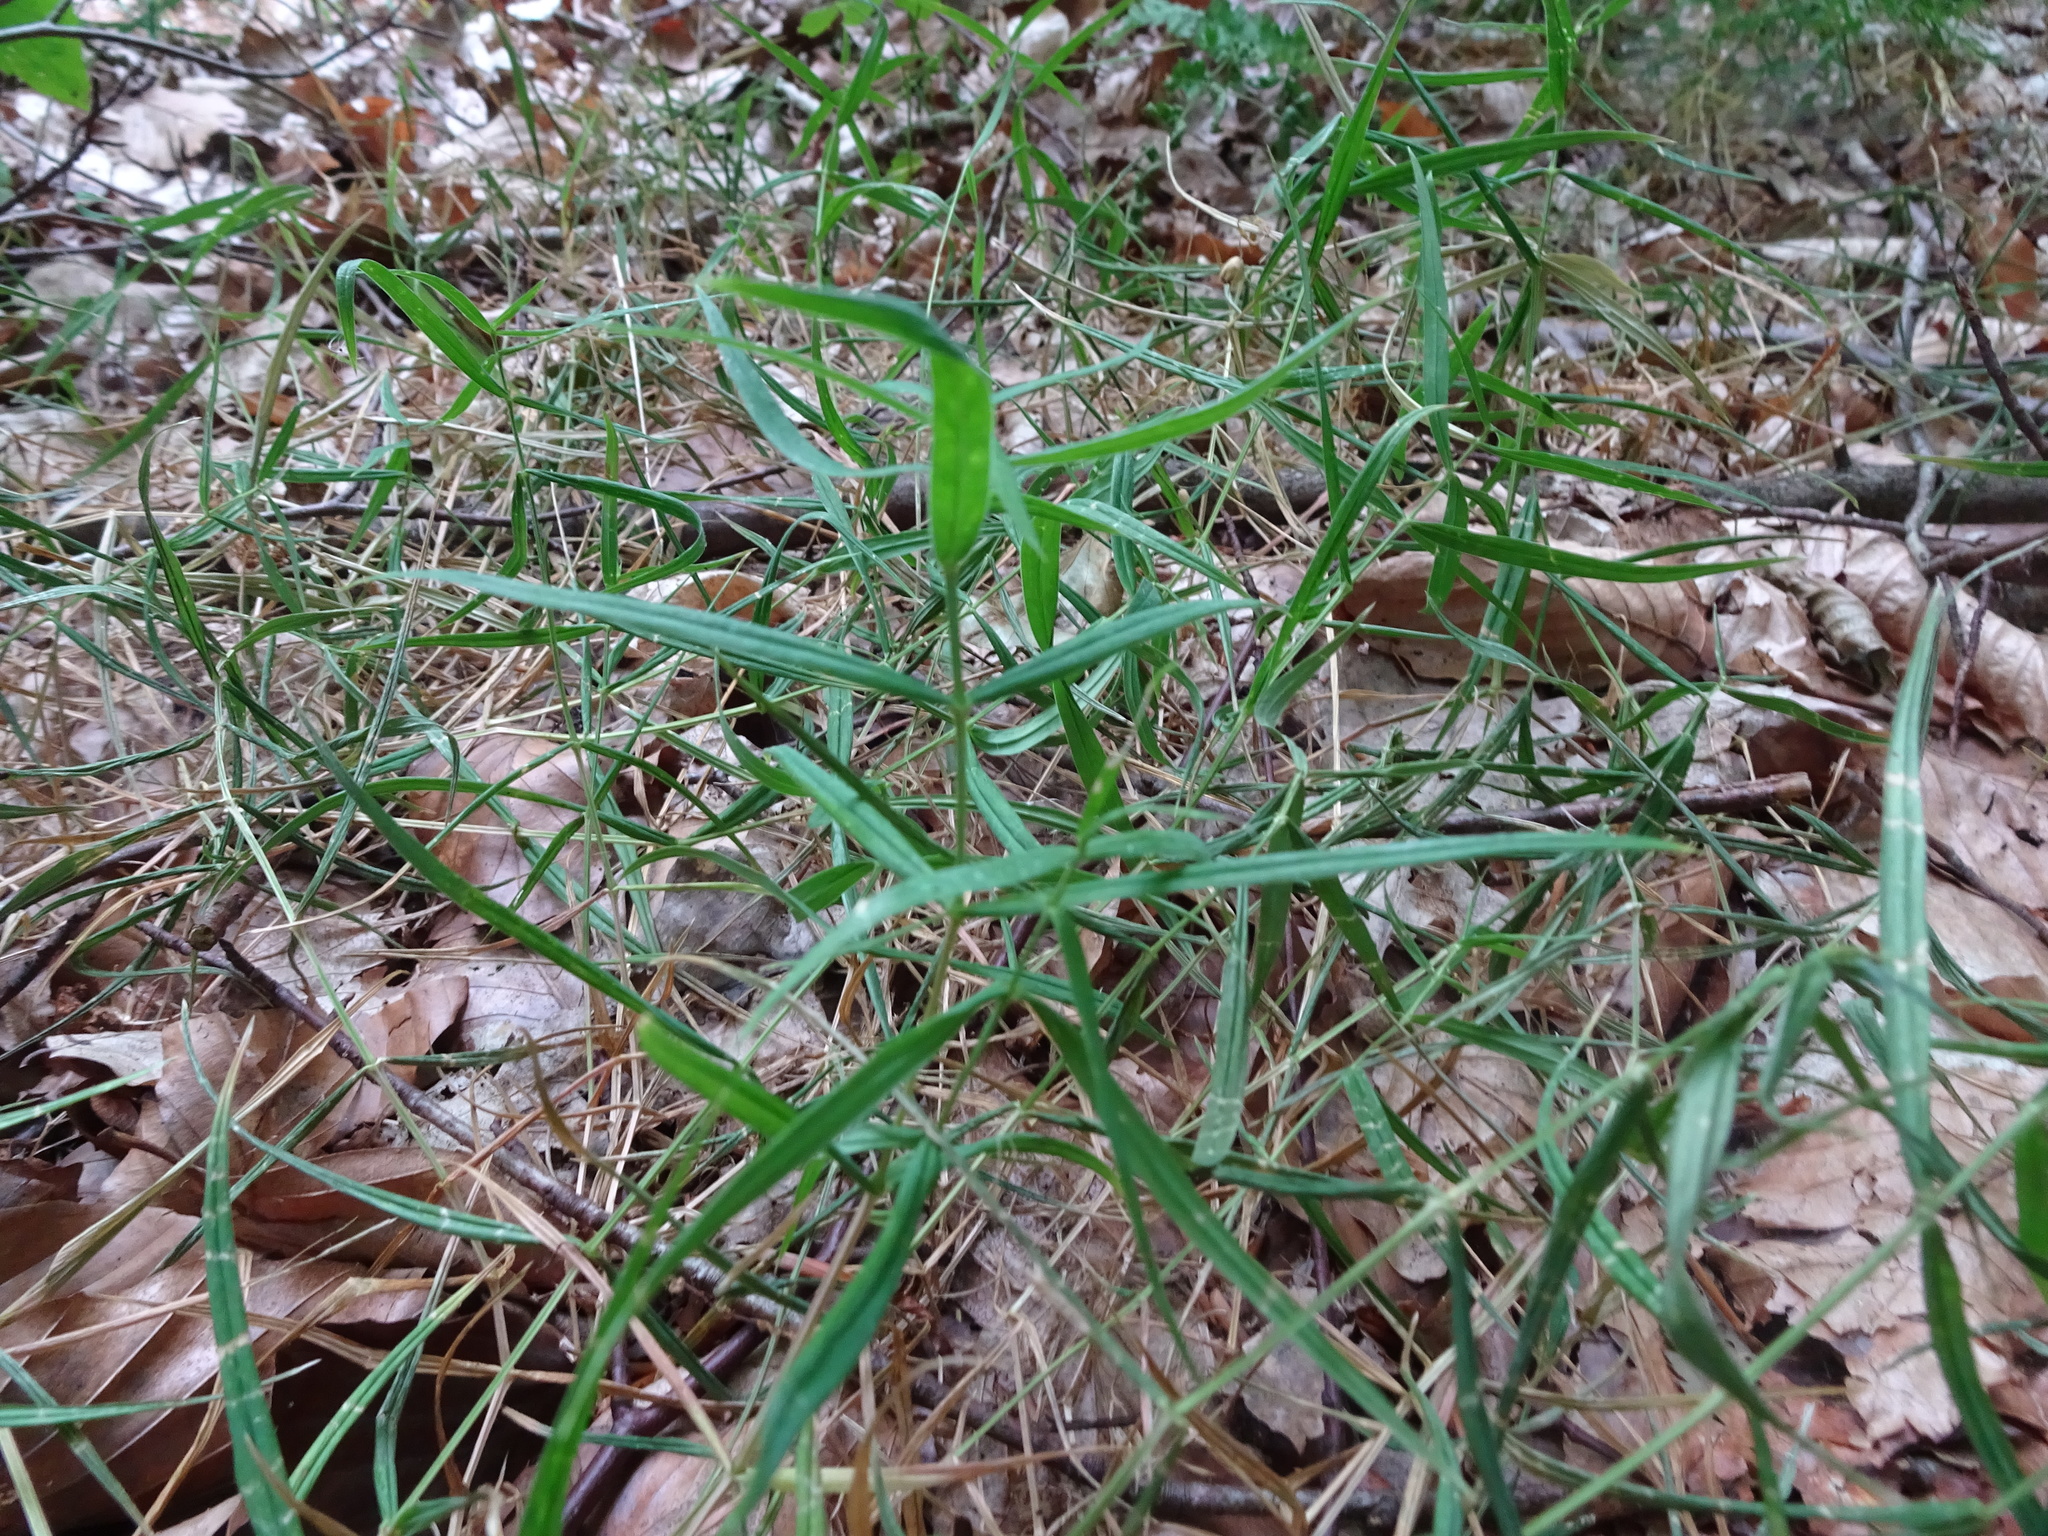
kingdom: Plantae
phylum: Tracheophyta
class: Magnoliopsida
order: Caryophyllales
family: Caryophyllaceae
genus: Rabelera
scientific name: Rabelera holostea
